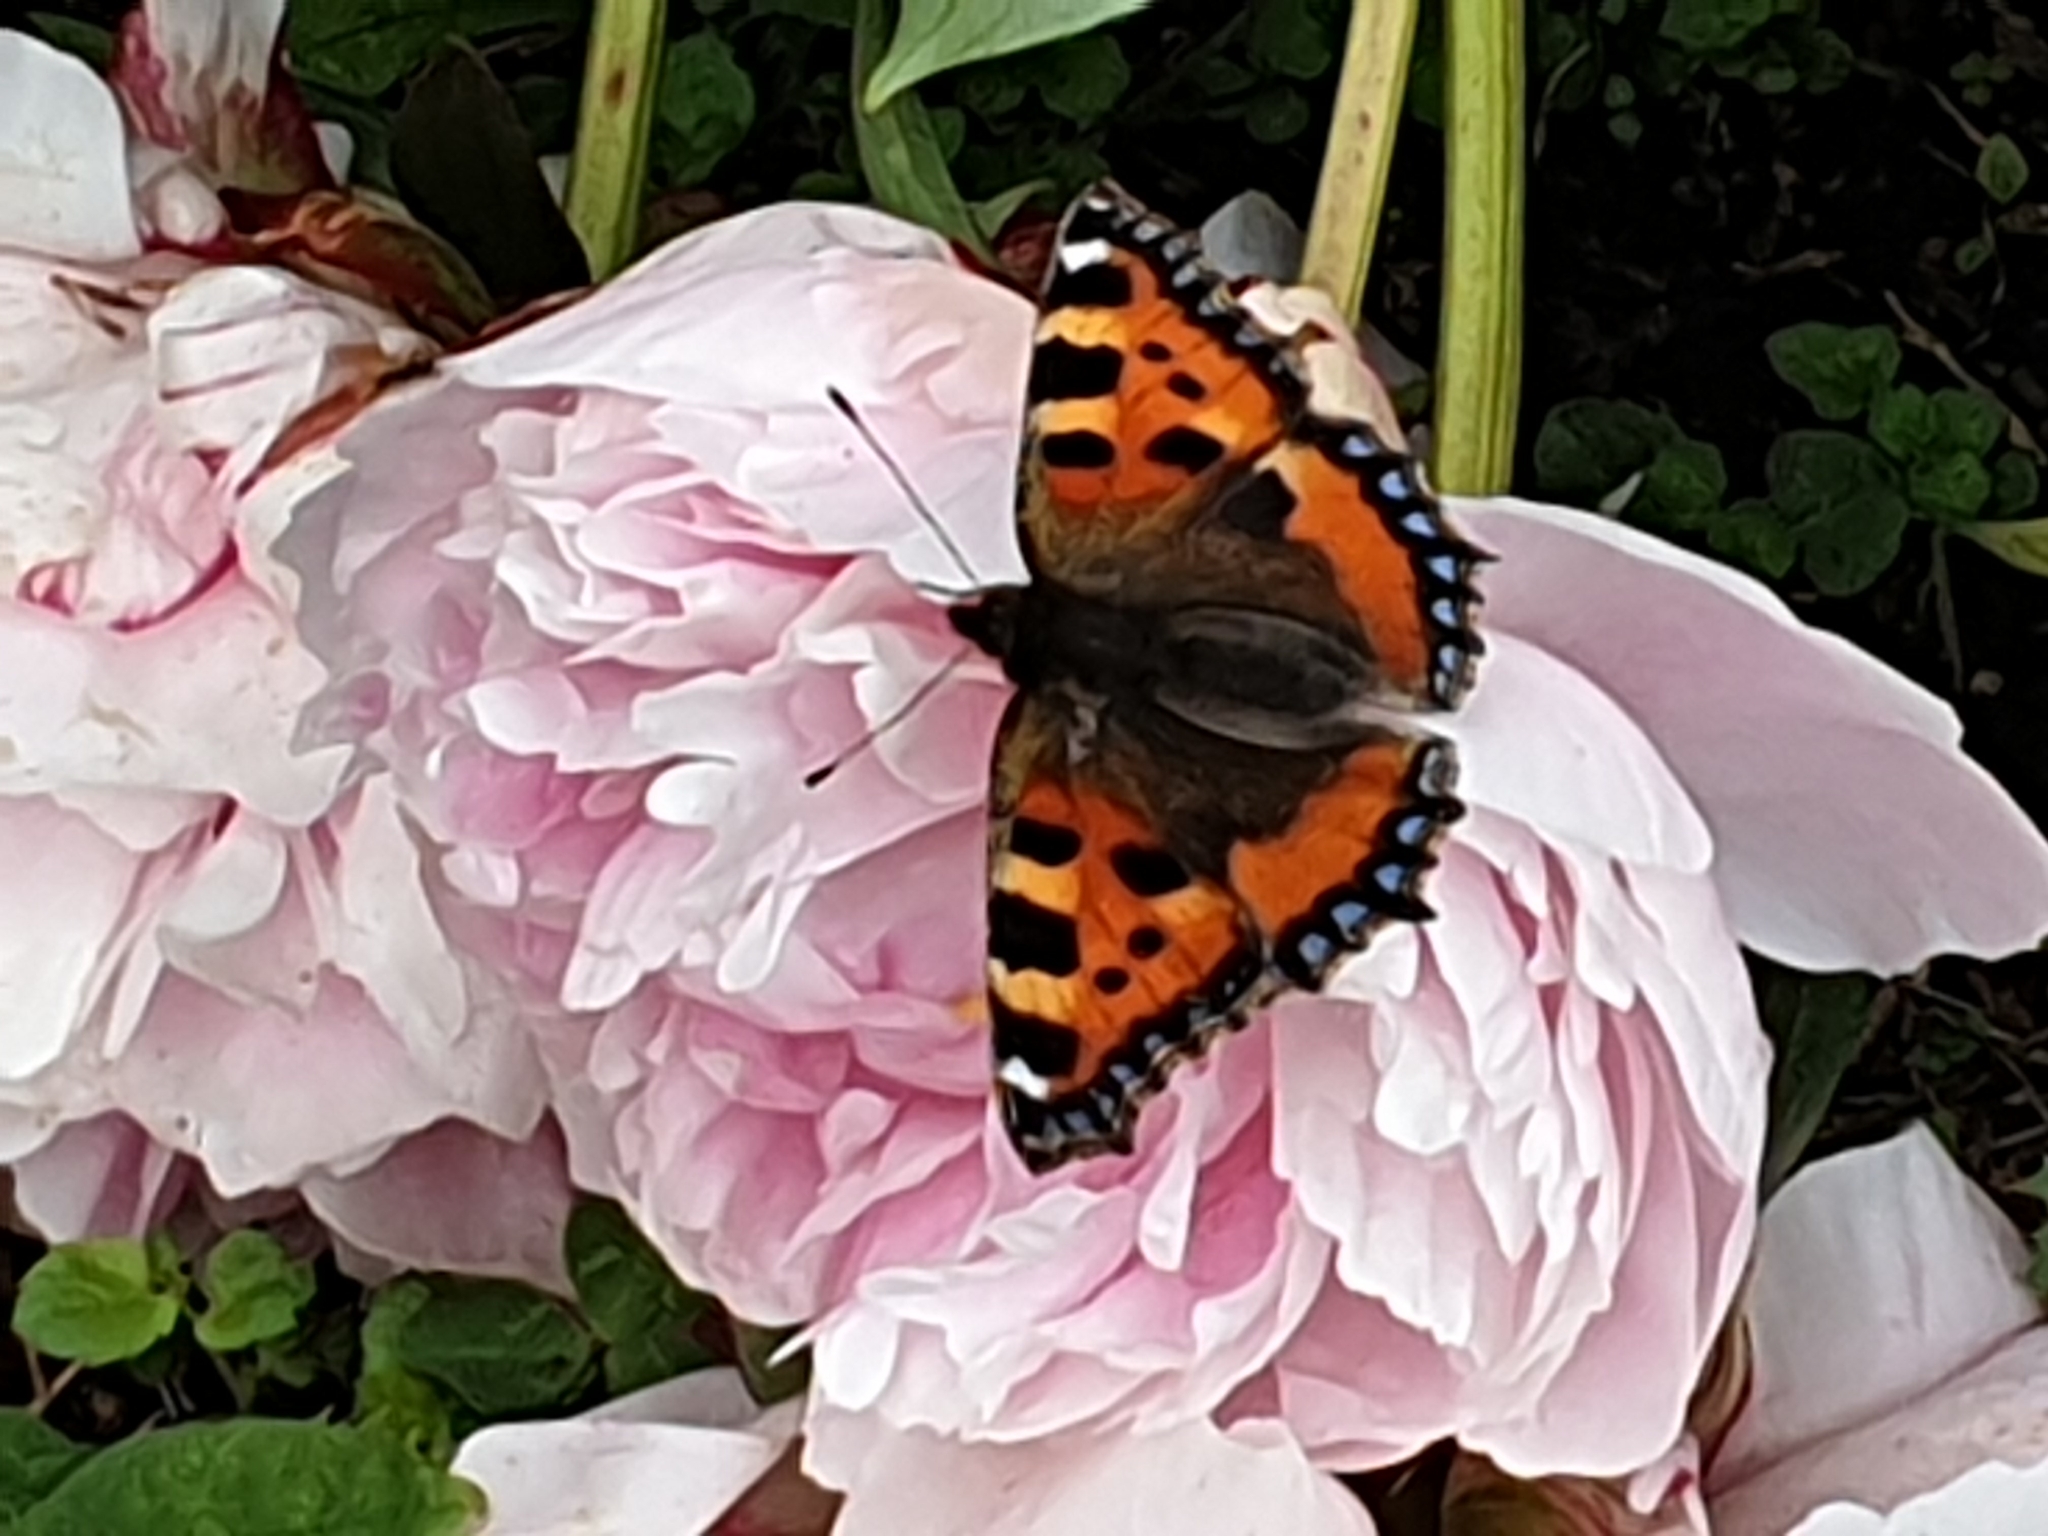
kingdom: Animalia
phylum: Arthropoda
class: Insecta
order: Lepidoptera
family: Nymphalidae
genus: Aglais
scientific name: Aglais urticae
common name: Small tortoiseshell
